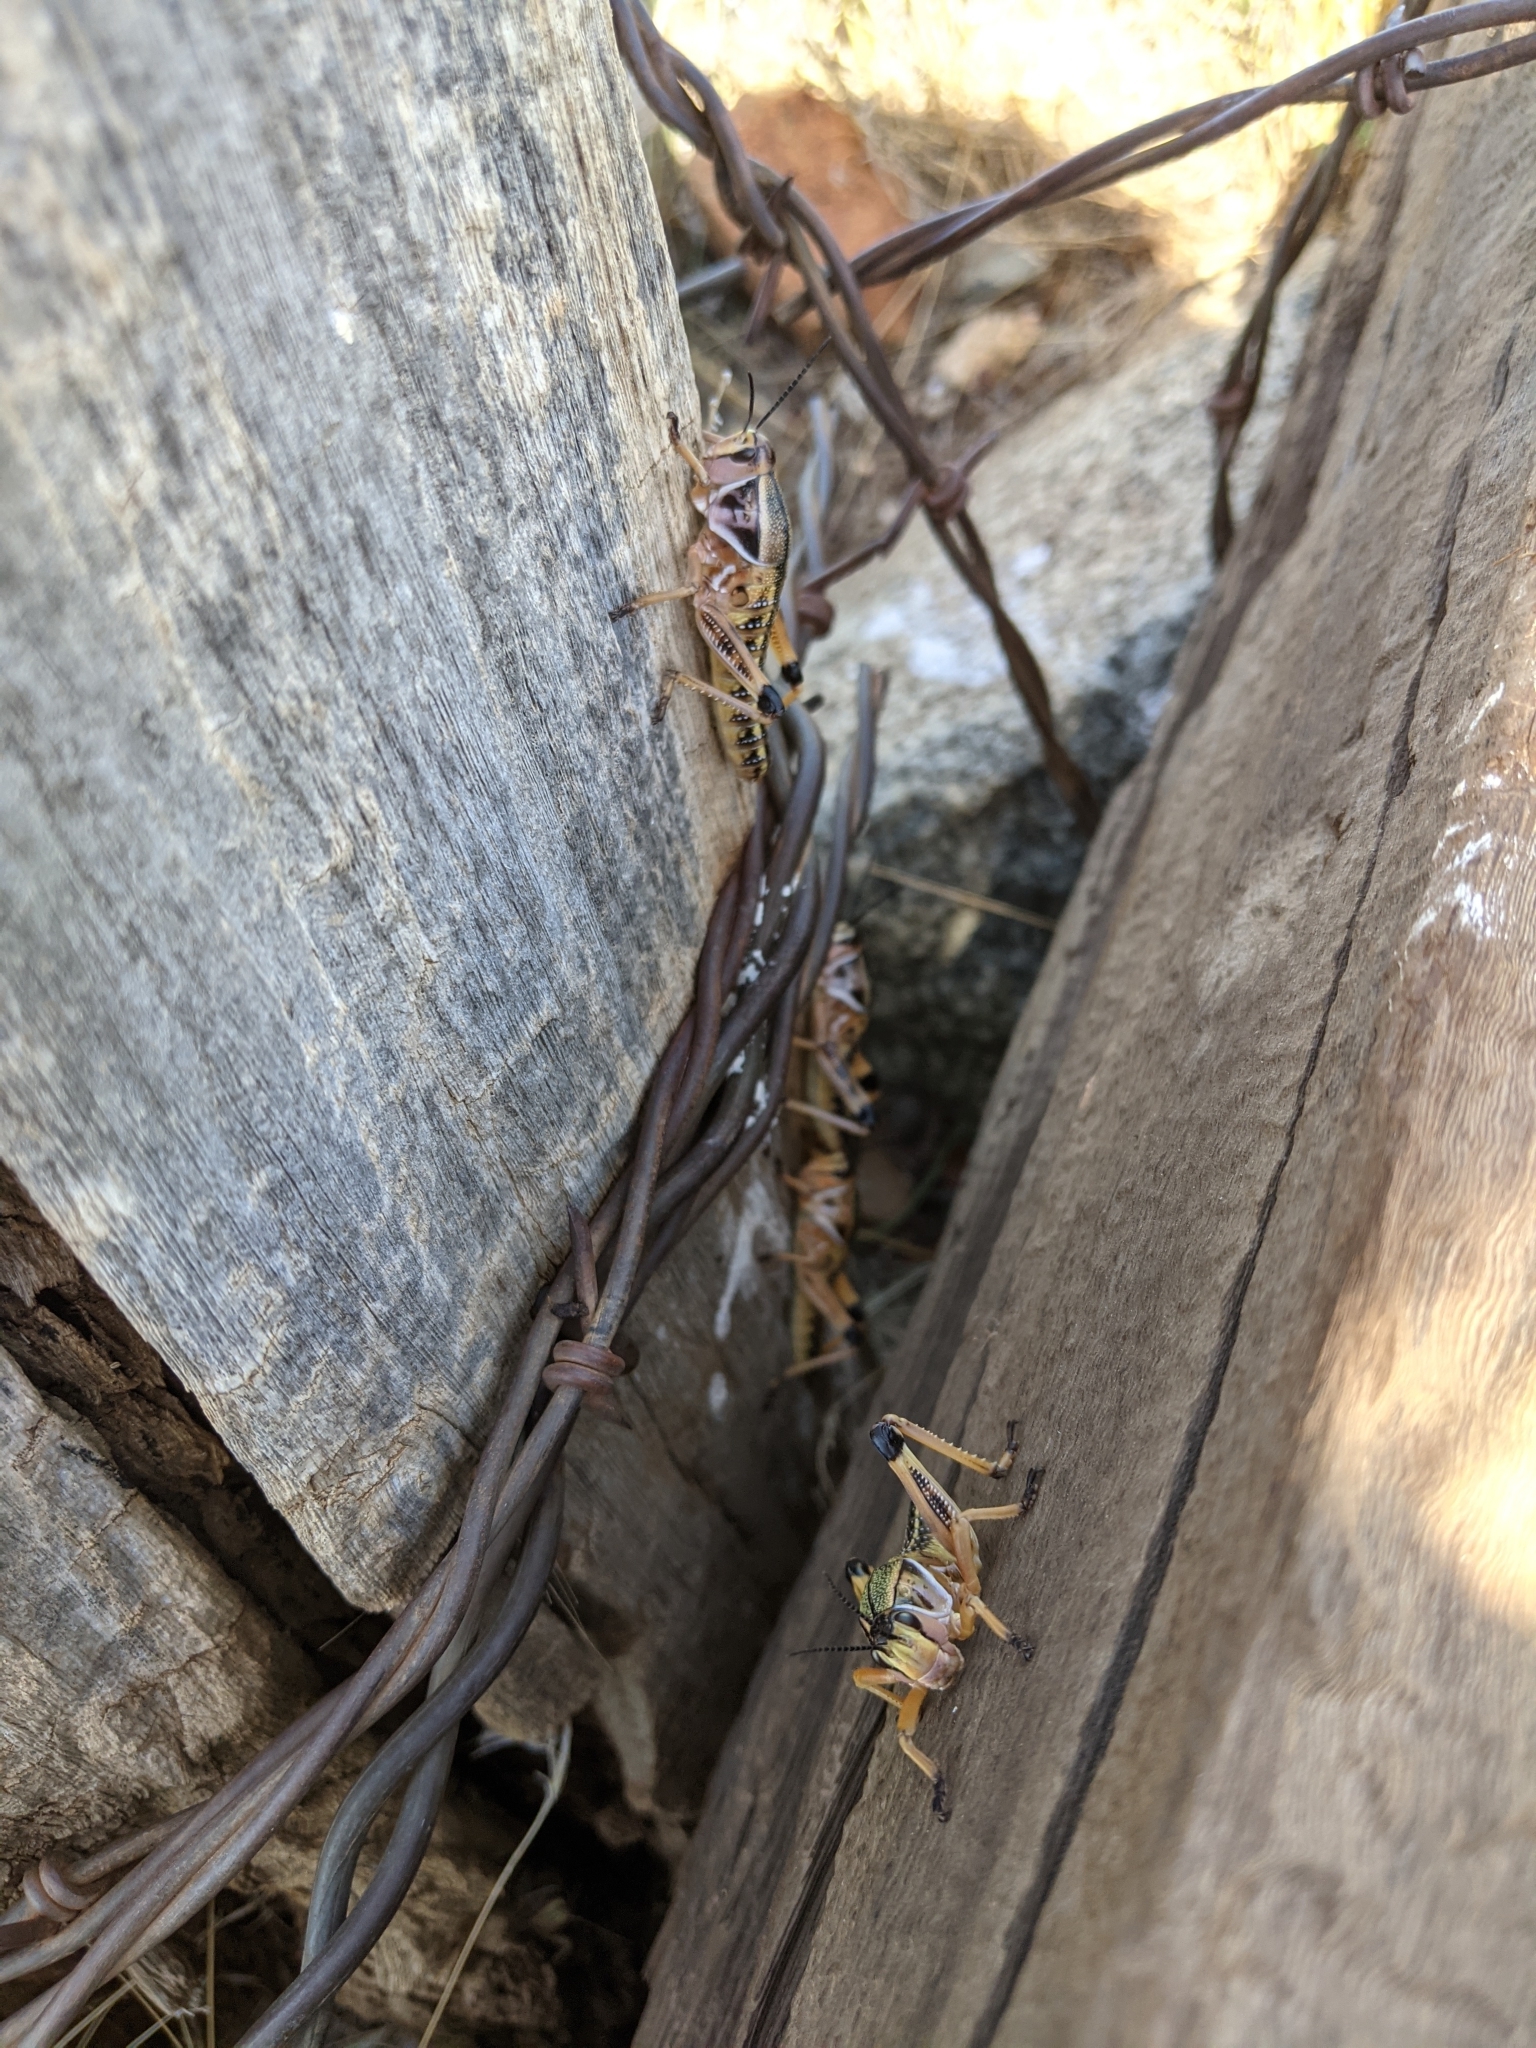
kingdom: Animalia
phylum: Arthropoda
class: Insecta
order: Orthoptera
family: Romaleidae
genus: Brachystola
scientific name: Brachystola magna
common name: Plains lubber grasshopper
